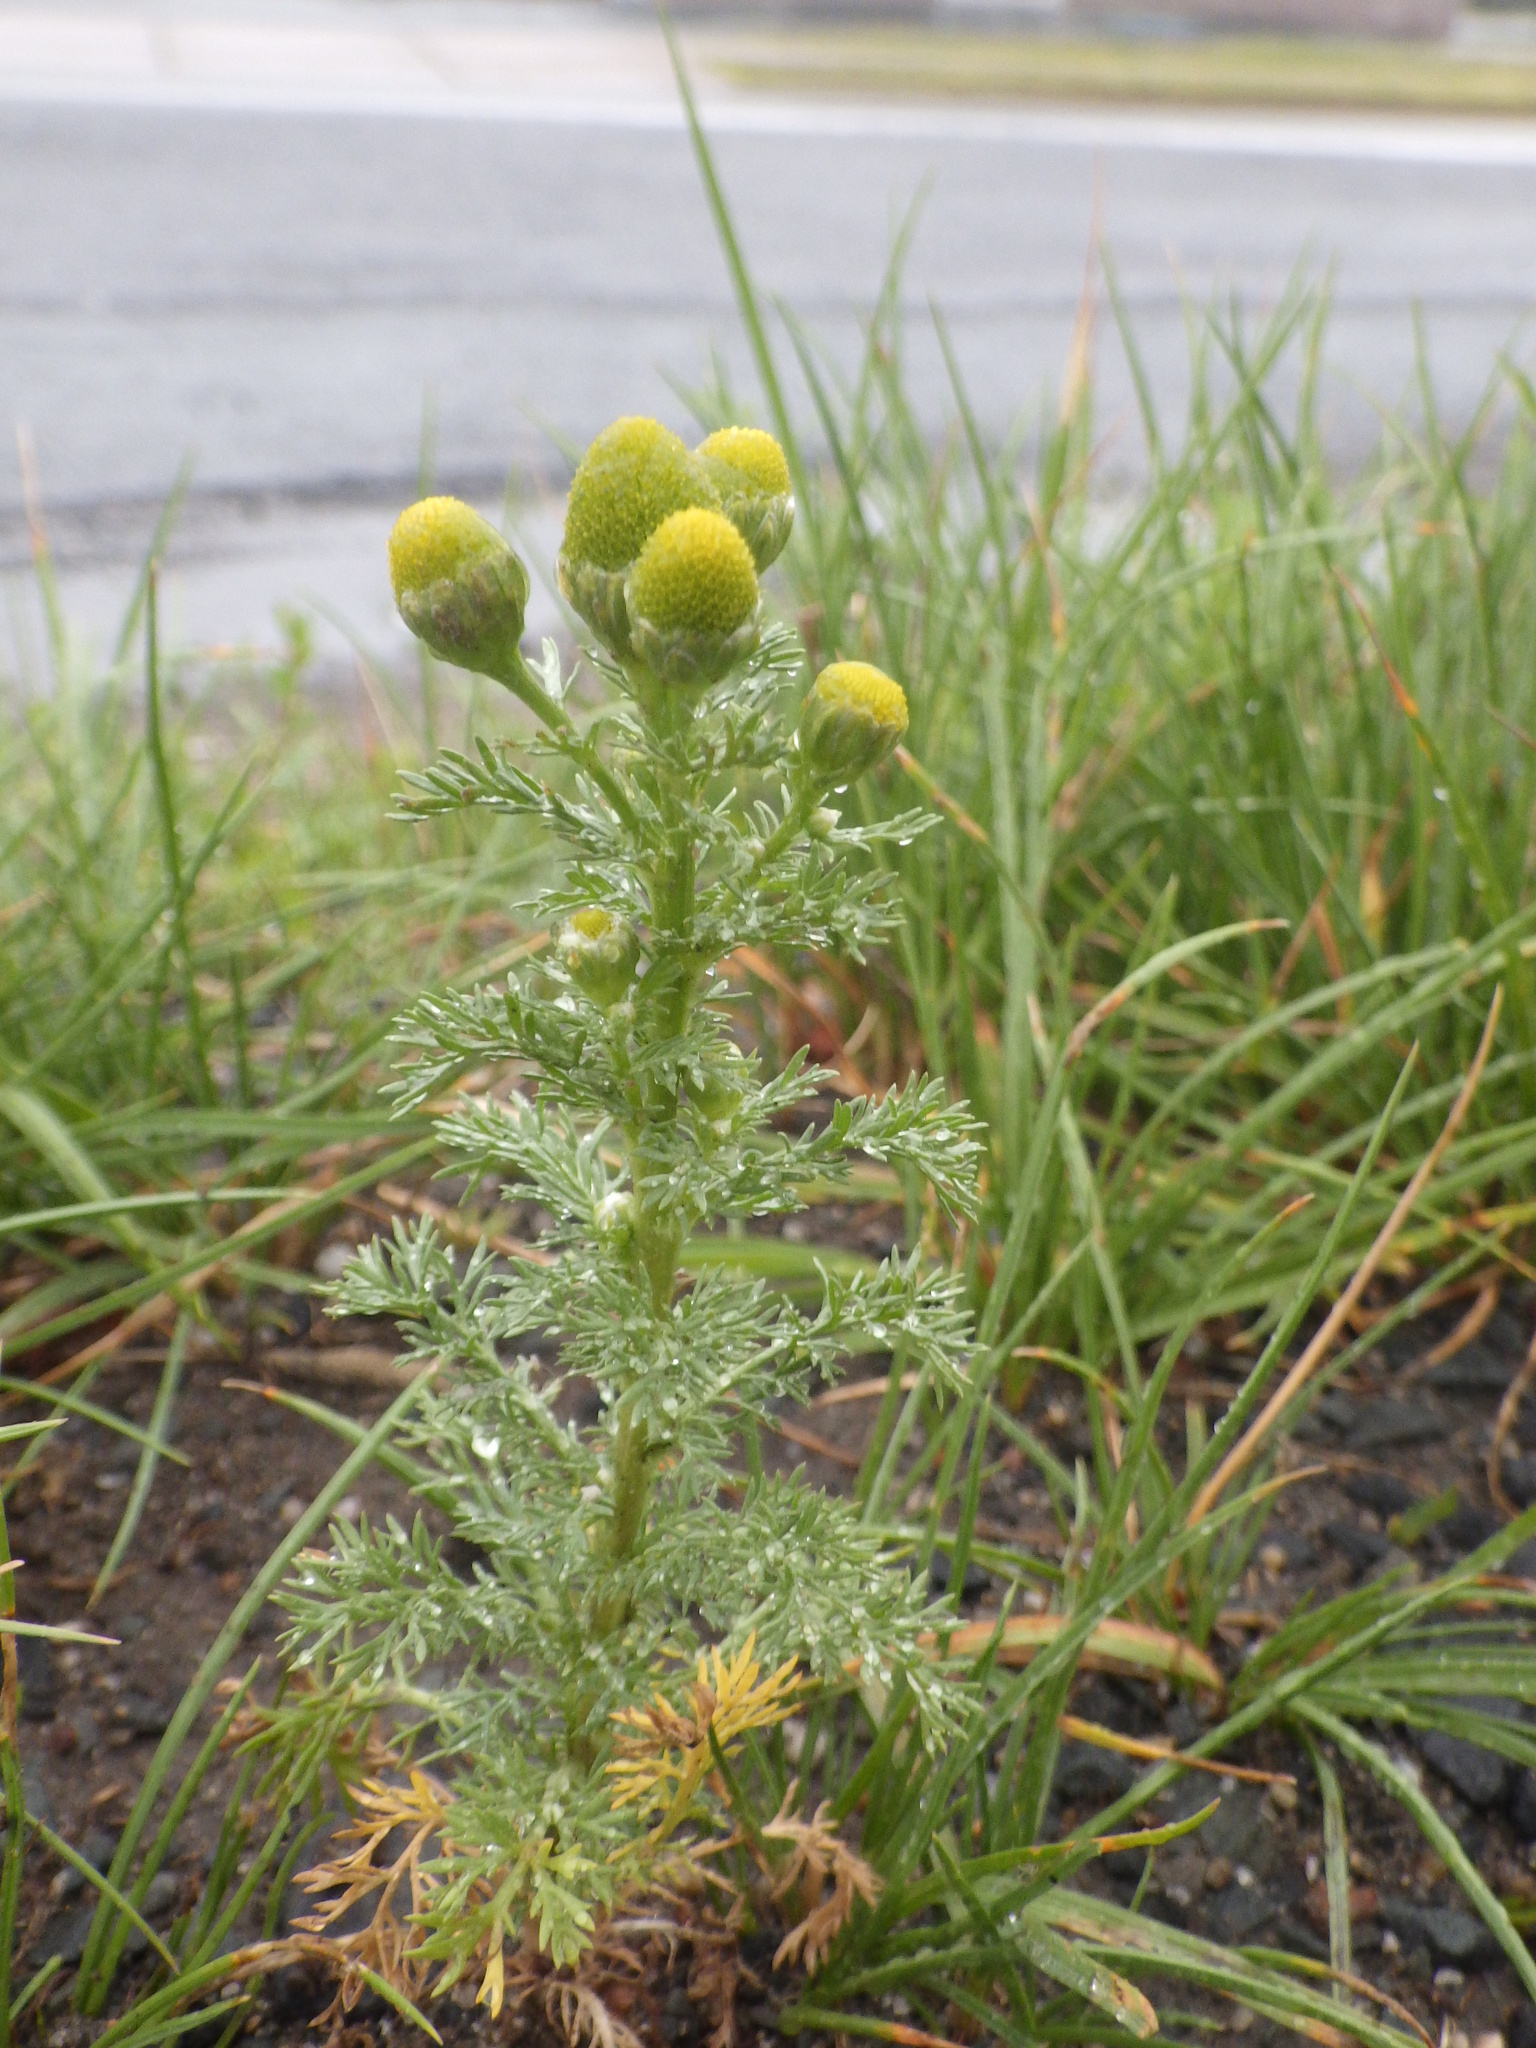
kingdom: Plantae
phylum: Tracheophyta
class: Magnoliopsida
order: Asterales
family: Asteraceae
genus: Matricaria
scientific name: Matricaria discoidea
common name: Disc mayweed
